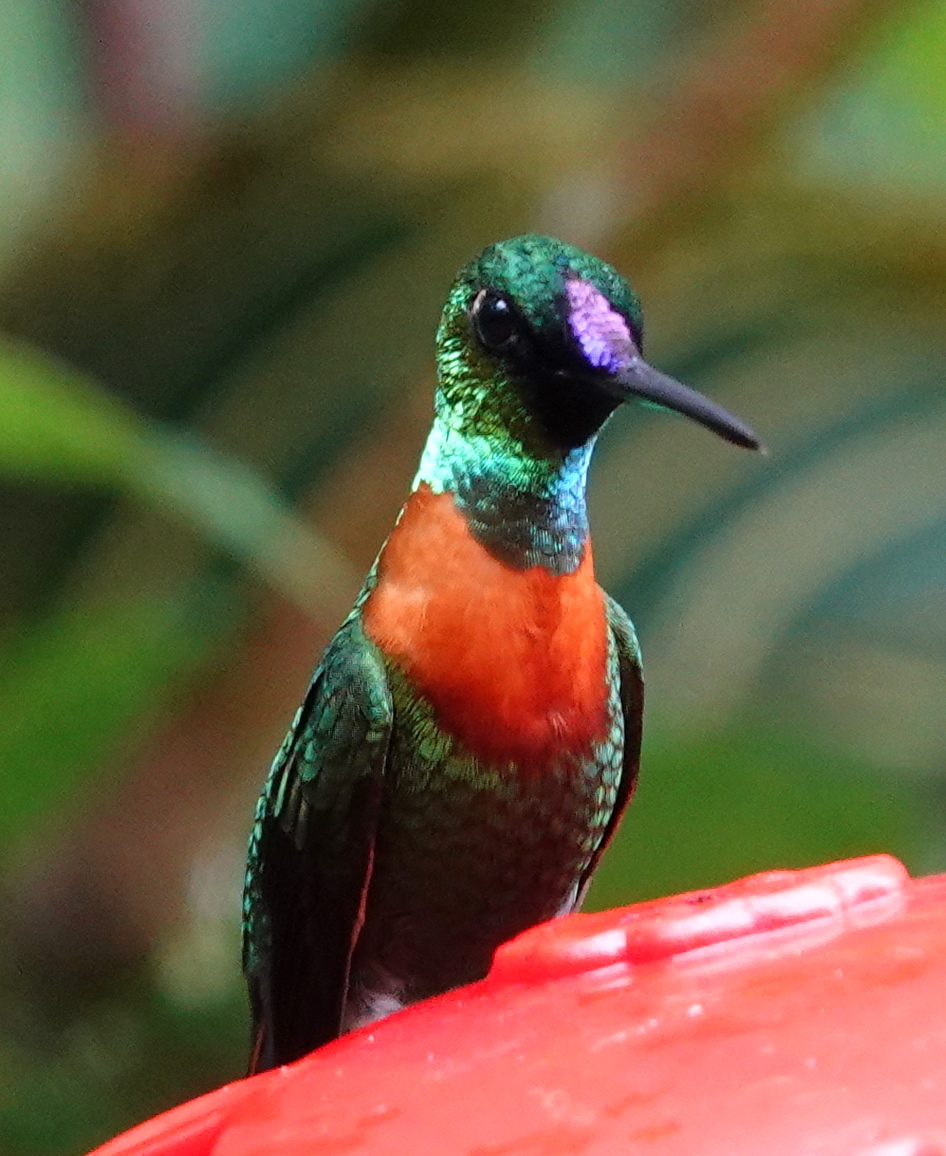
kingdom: Animalia
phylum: Chordata
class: Aves
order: Apodiformes
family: Trochilidae
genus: Heliodoxa
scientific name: Heliodoxa aurescens
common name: Gould's jewelfront
